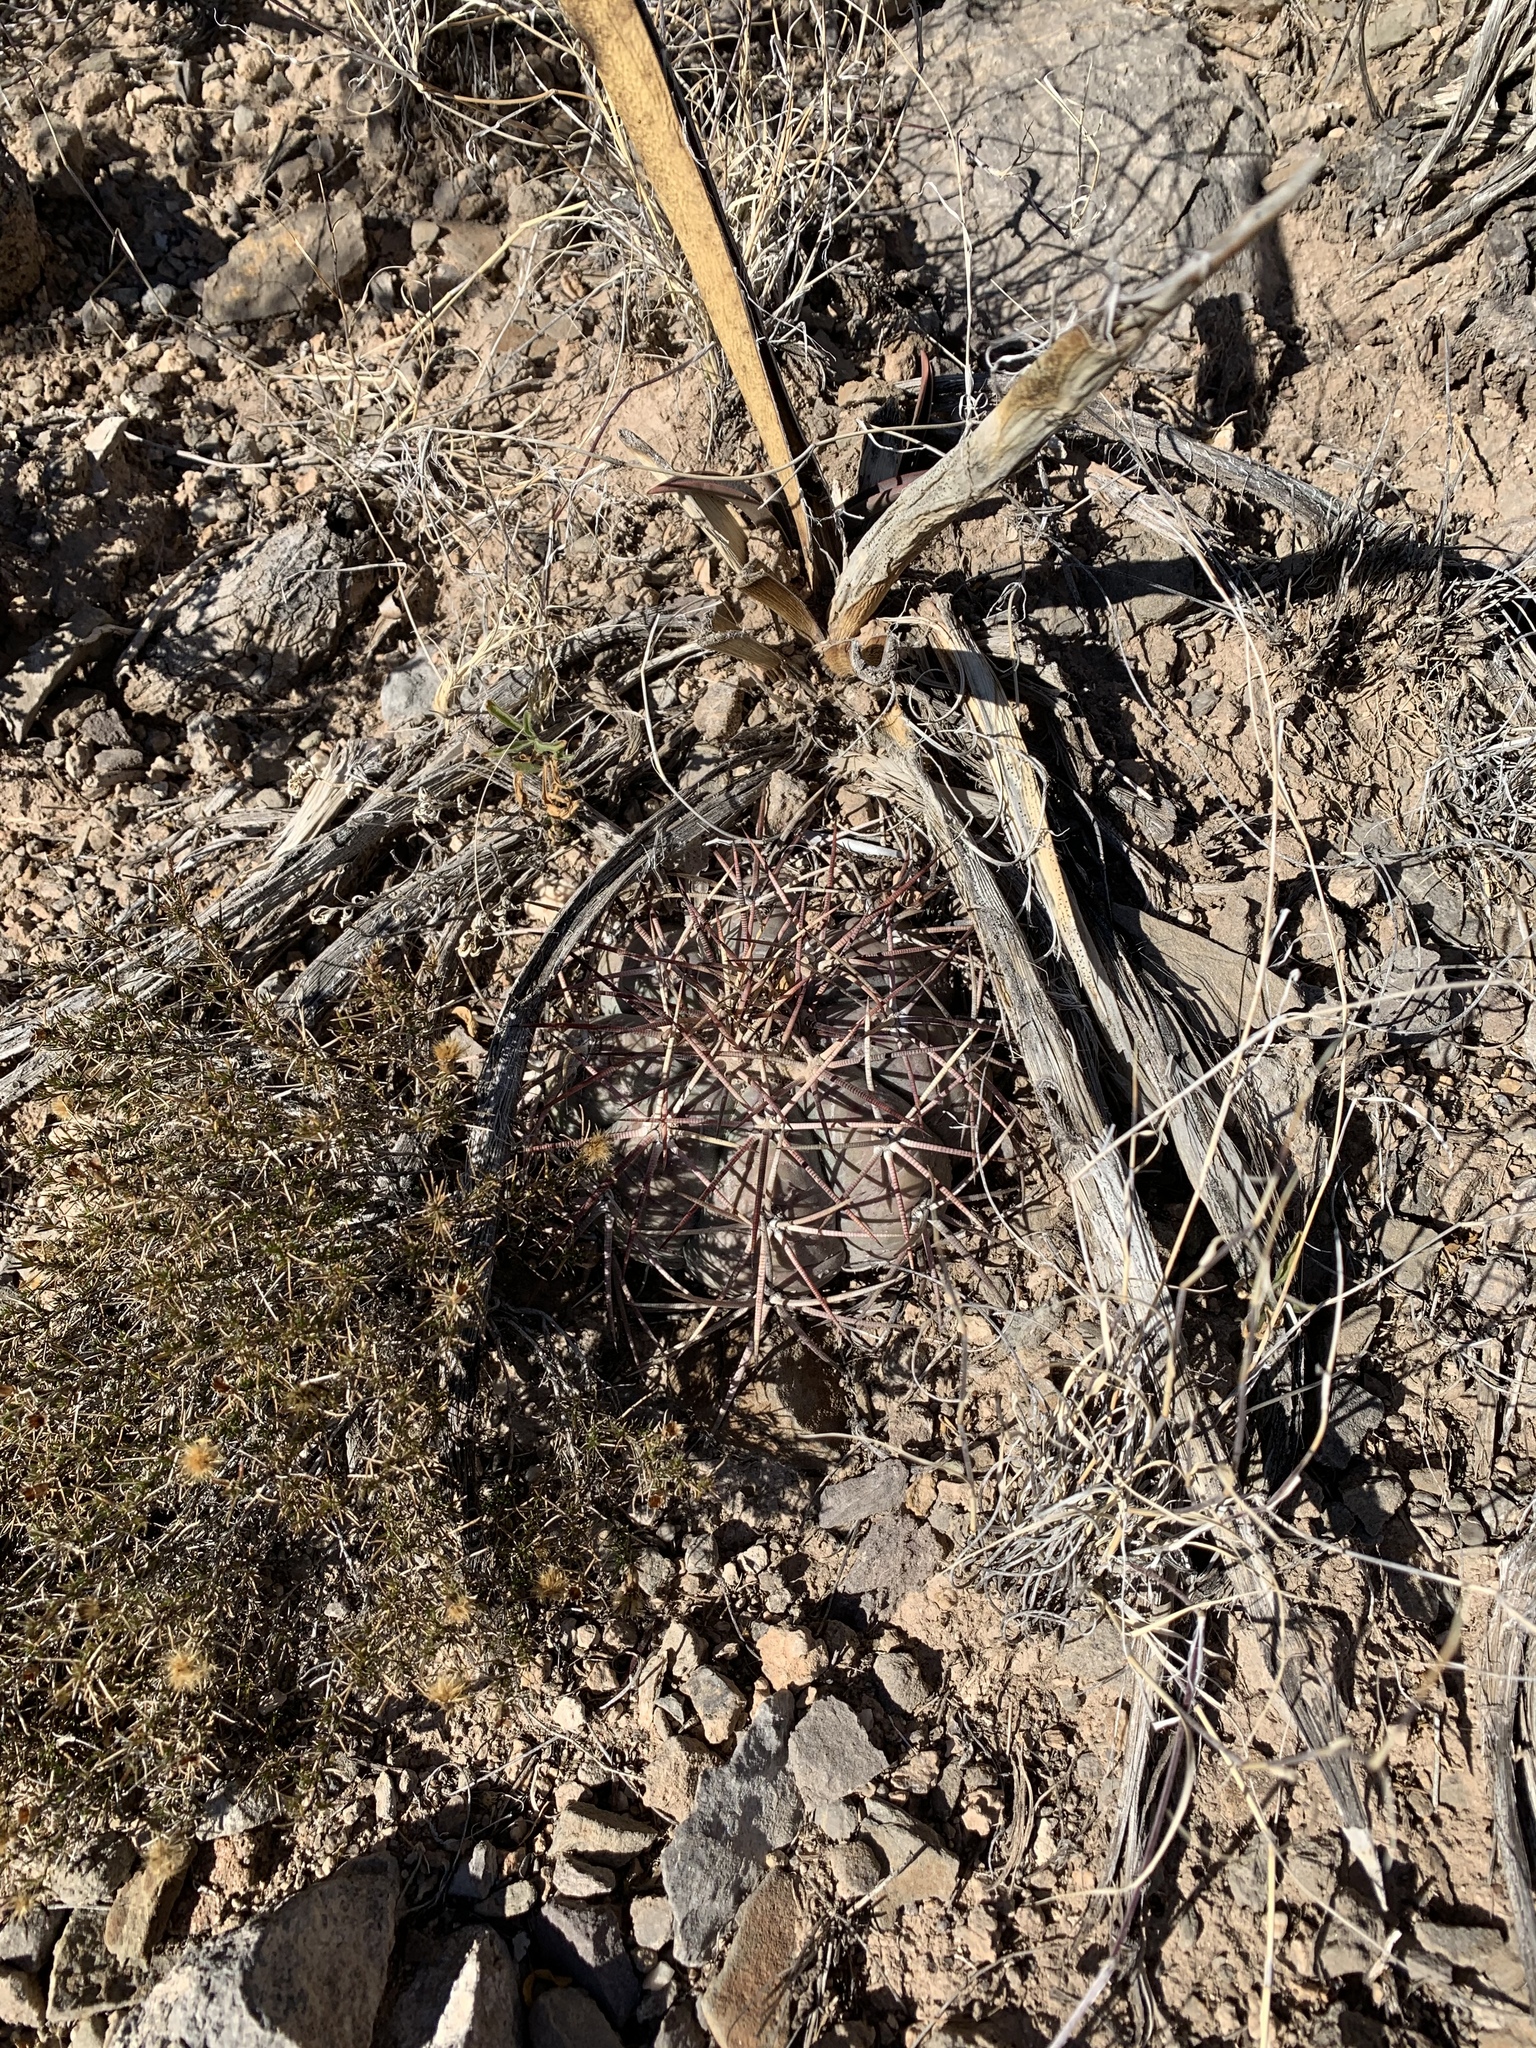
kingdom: Plantae
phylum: Tracheophyta
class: Magnoliopsida
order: Caryophyllales
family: Cactaceae
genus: Echinocactus
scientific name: Echinocactus horizonthalonius
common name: Devilshead
